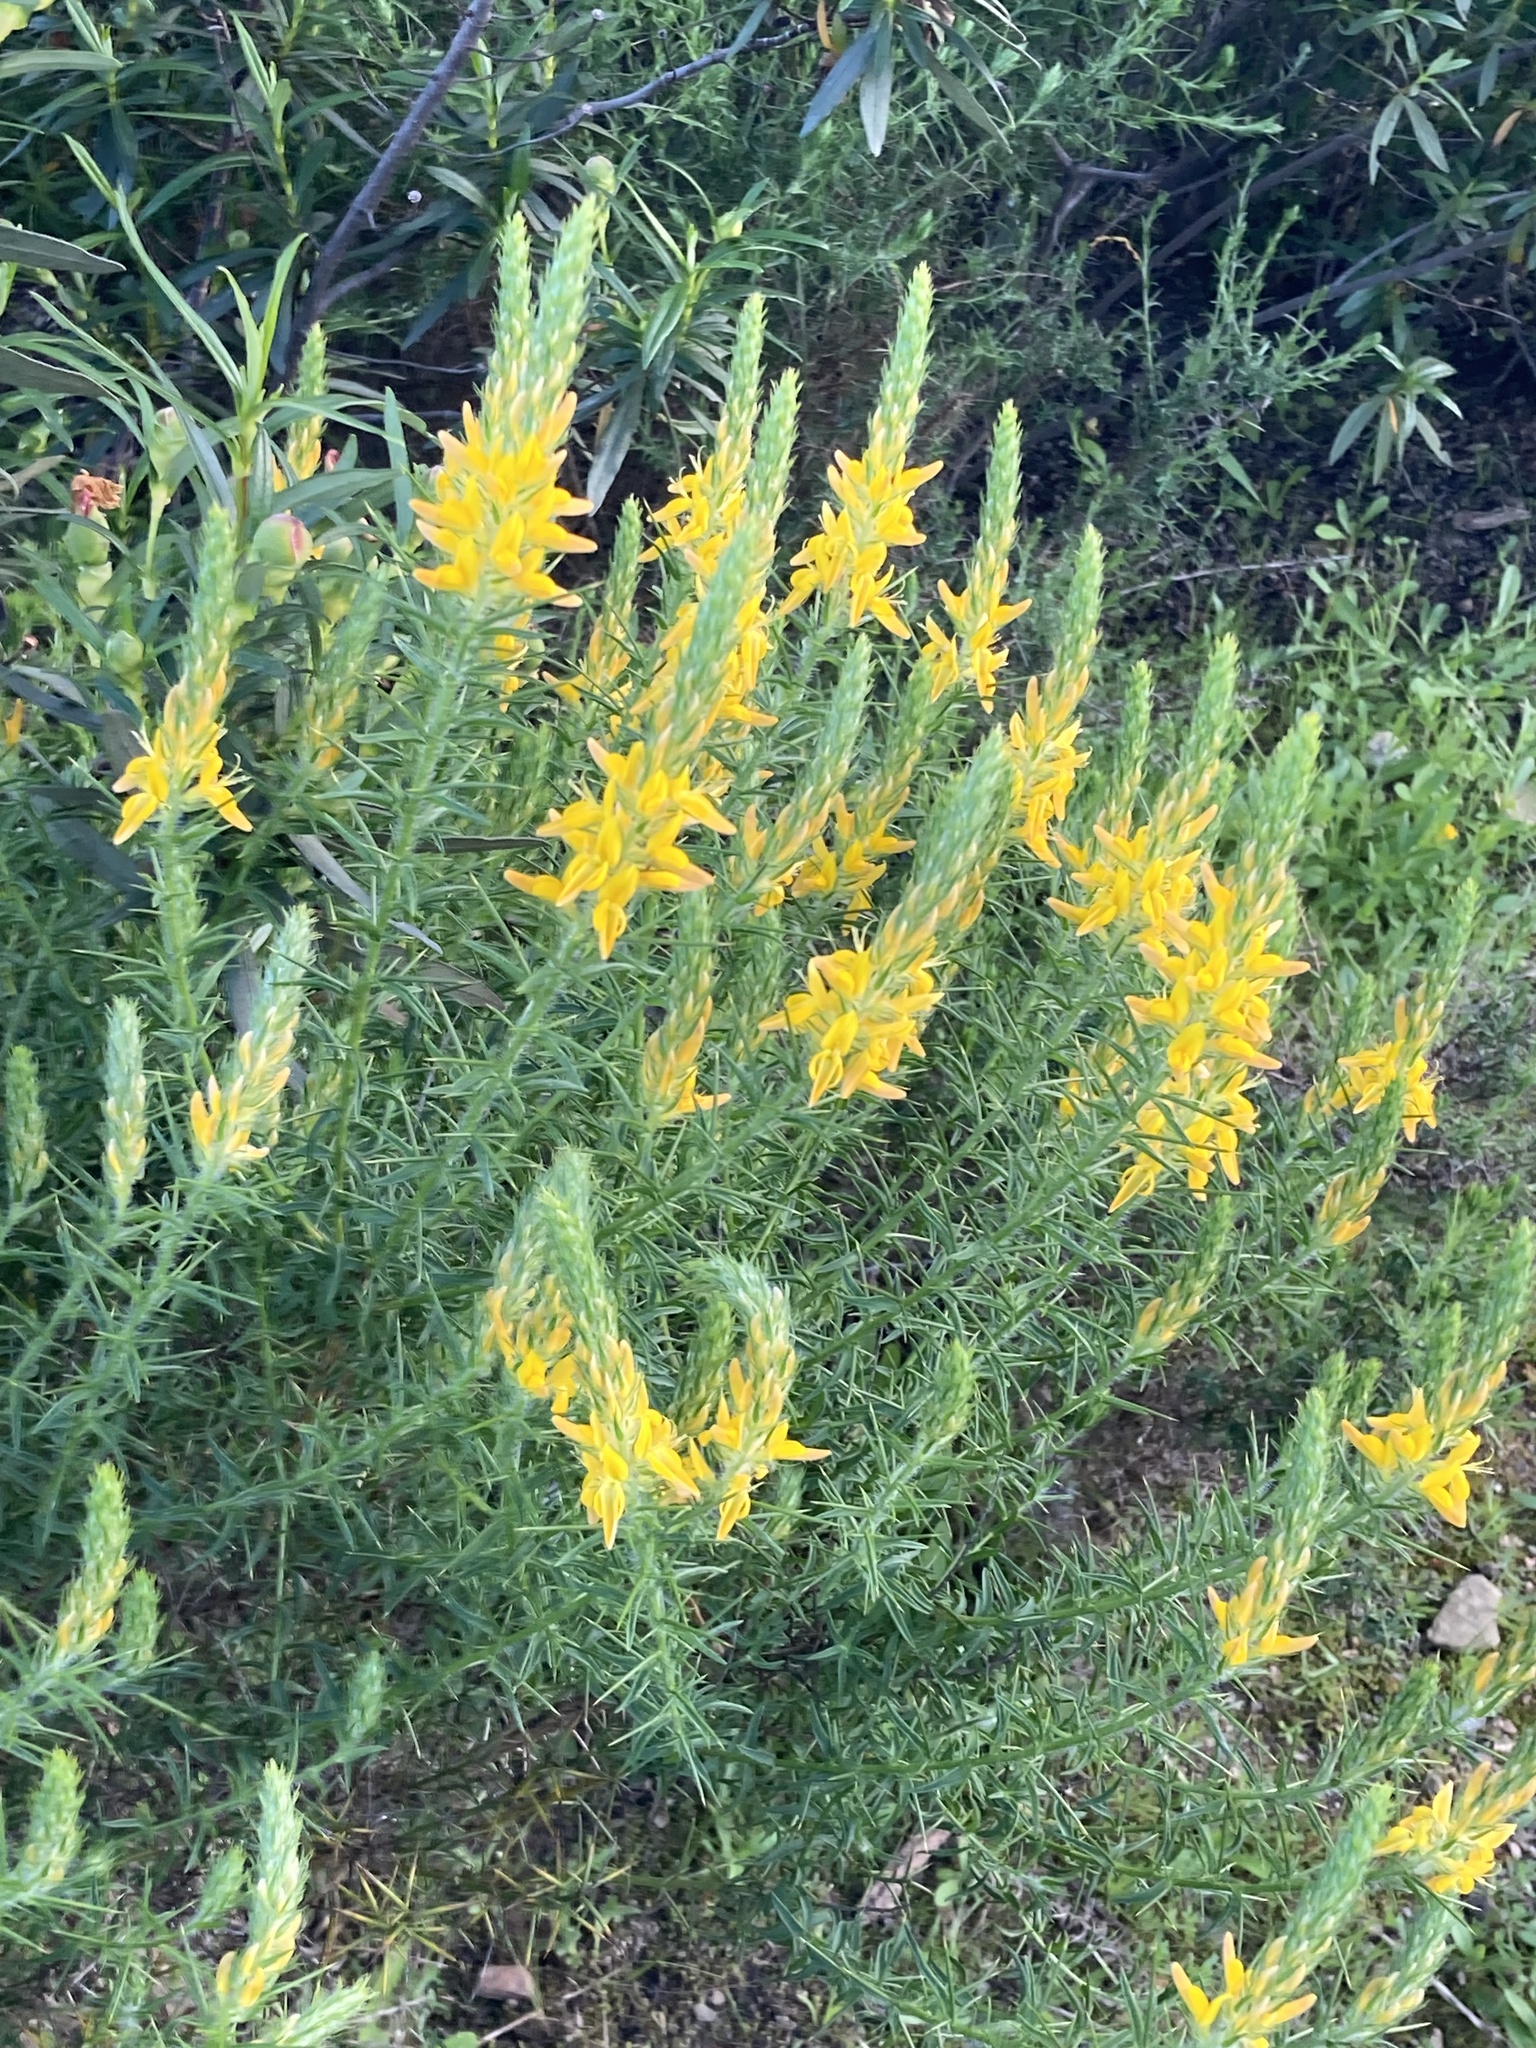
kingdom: Plantae
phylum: Tracheophyta
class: Magnoliopsida
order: Fabales
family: Fabaceae
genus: Genista
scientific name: Genista hirsuta
